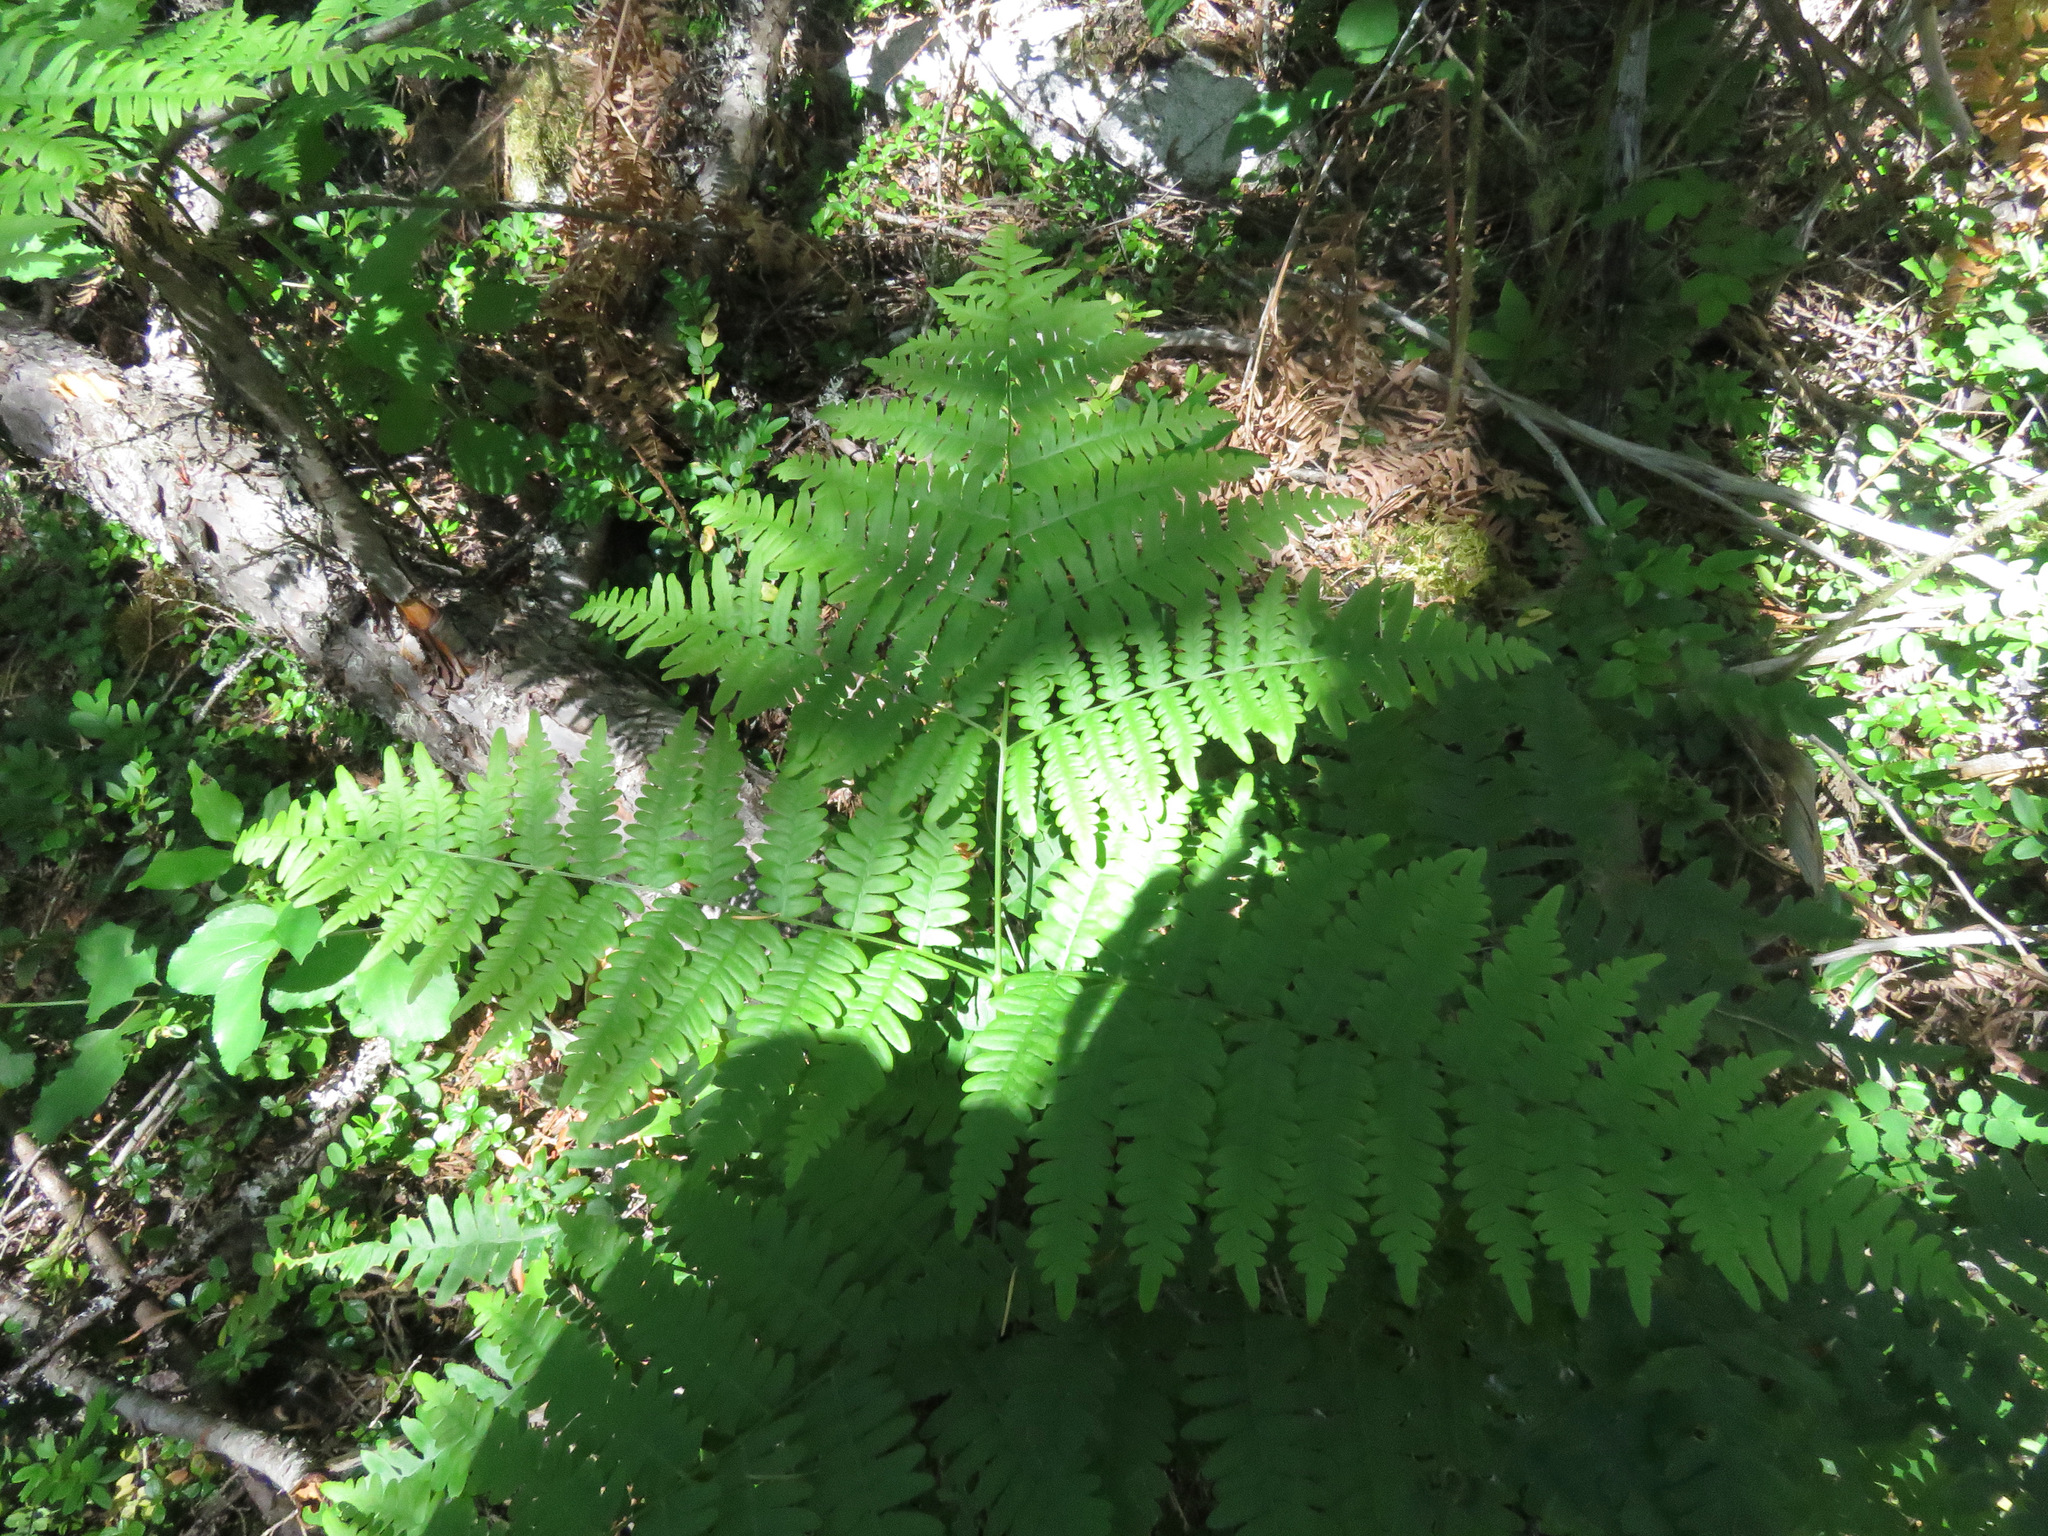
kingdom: Plantae
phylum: Tracheophyta
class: Polypodiopsida
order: Polypodiales
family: Dennstaedtiaceae
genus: Pteridium
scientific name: Pteridium aquilinum
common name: Bracken
